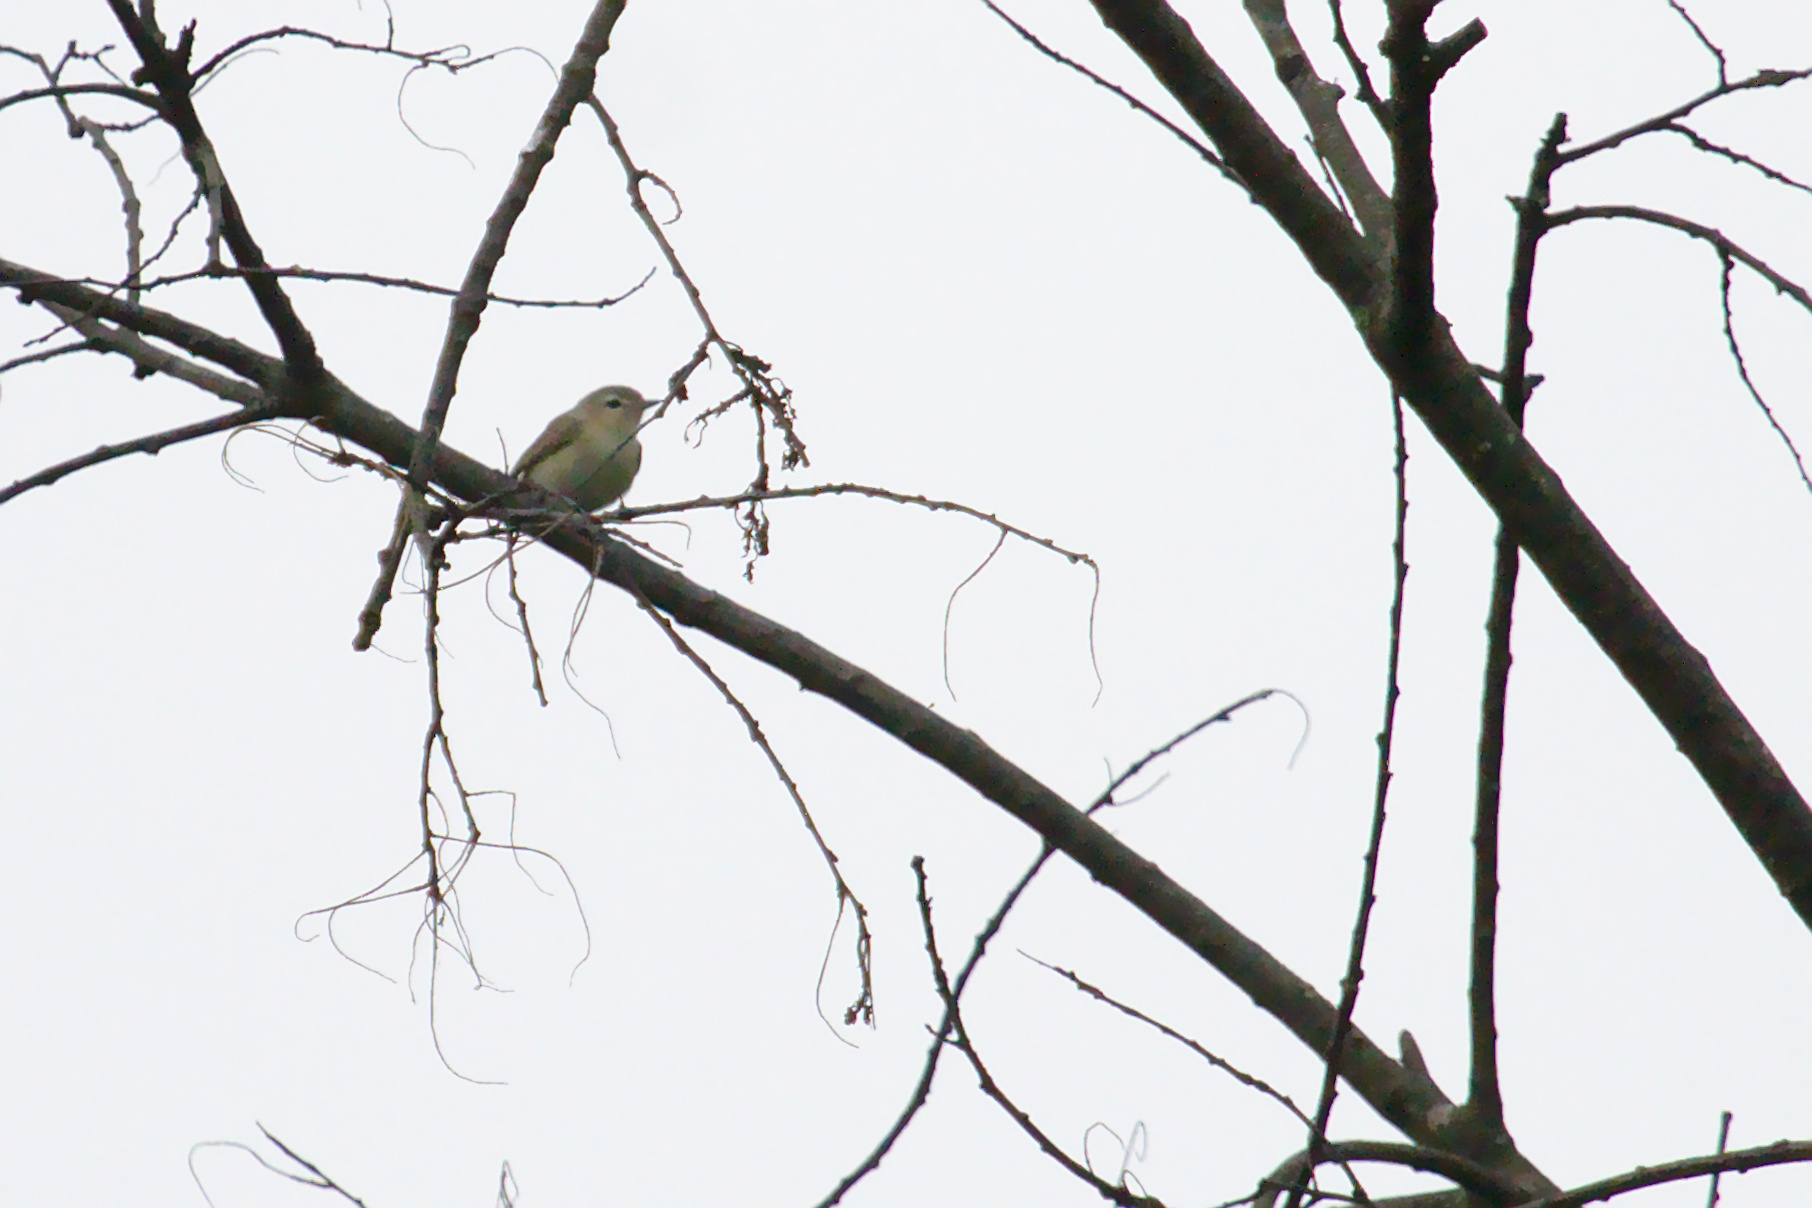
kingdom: Animalia
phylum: Chordata
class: Aves
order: Passeriformes
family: Vireonidae
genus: Vireo
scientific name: Vireo gilvus
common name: Warbling vireo
